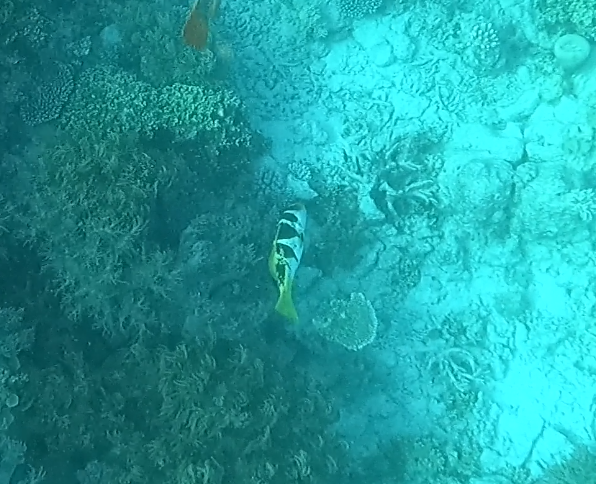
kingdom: Animalia
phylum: Chordata
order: Perciformes
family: Serranidae
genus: Plectropomus
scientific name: Plectropomus laevis
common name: Chinese footballer
